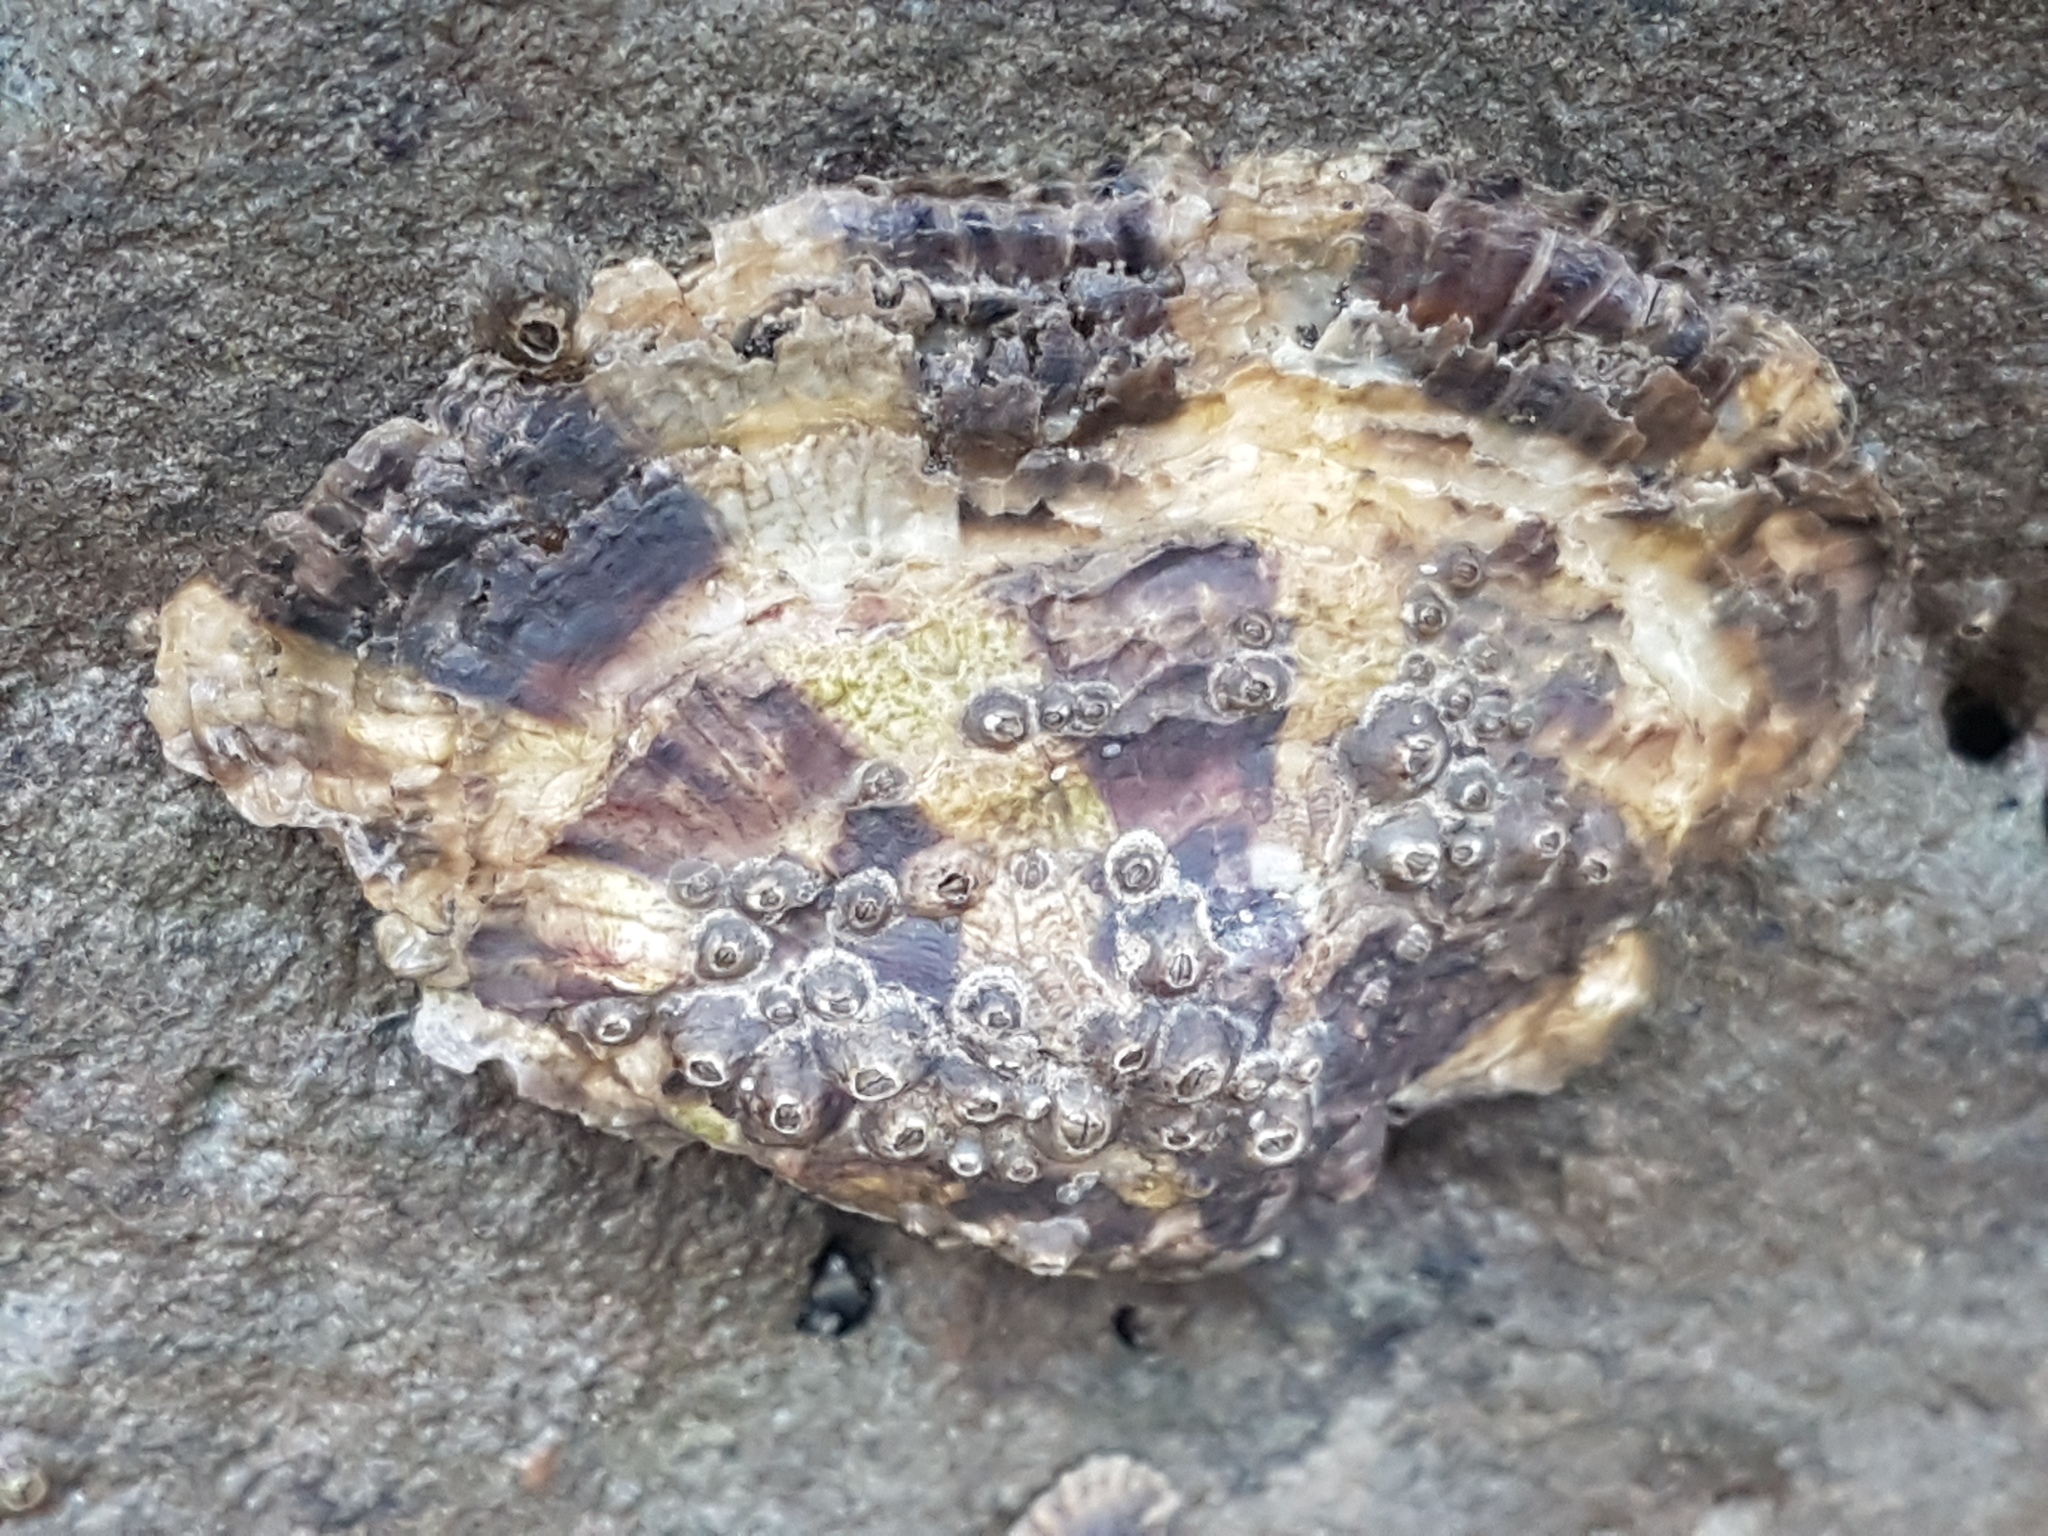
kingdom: Animalia
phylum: Mollusca
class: Bivalvia
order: Ostreida
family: Ostreidae
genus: Magallana
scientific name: Magallana gigas
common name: Pacific oyster
